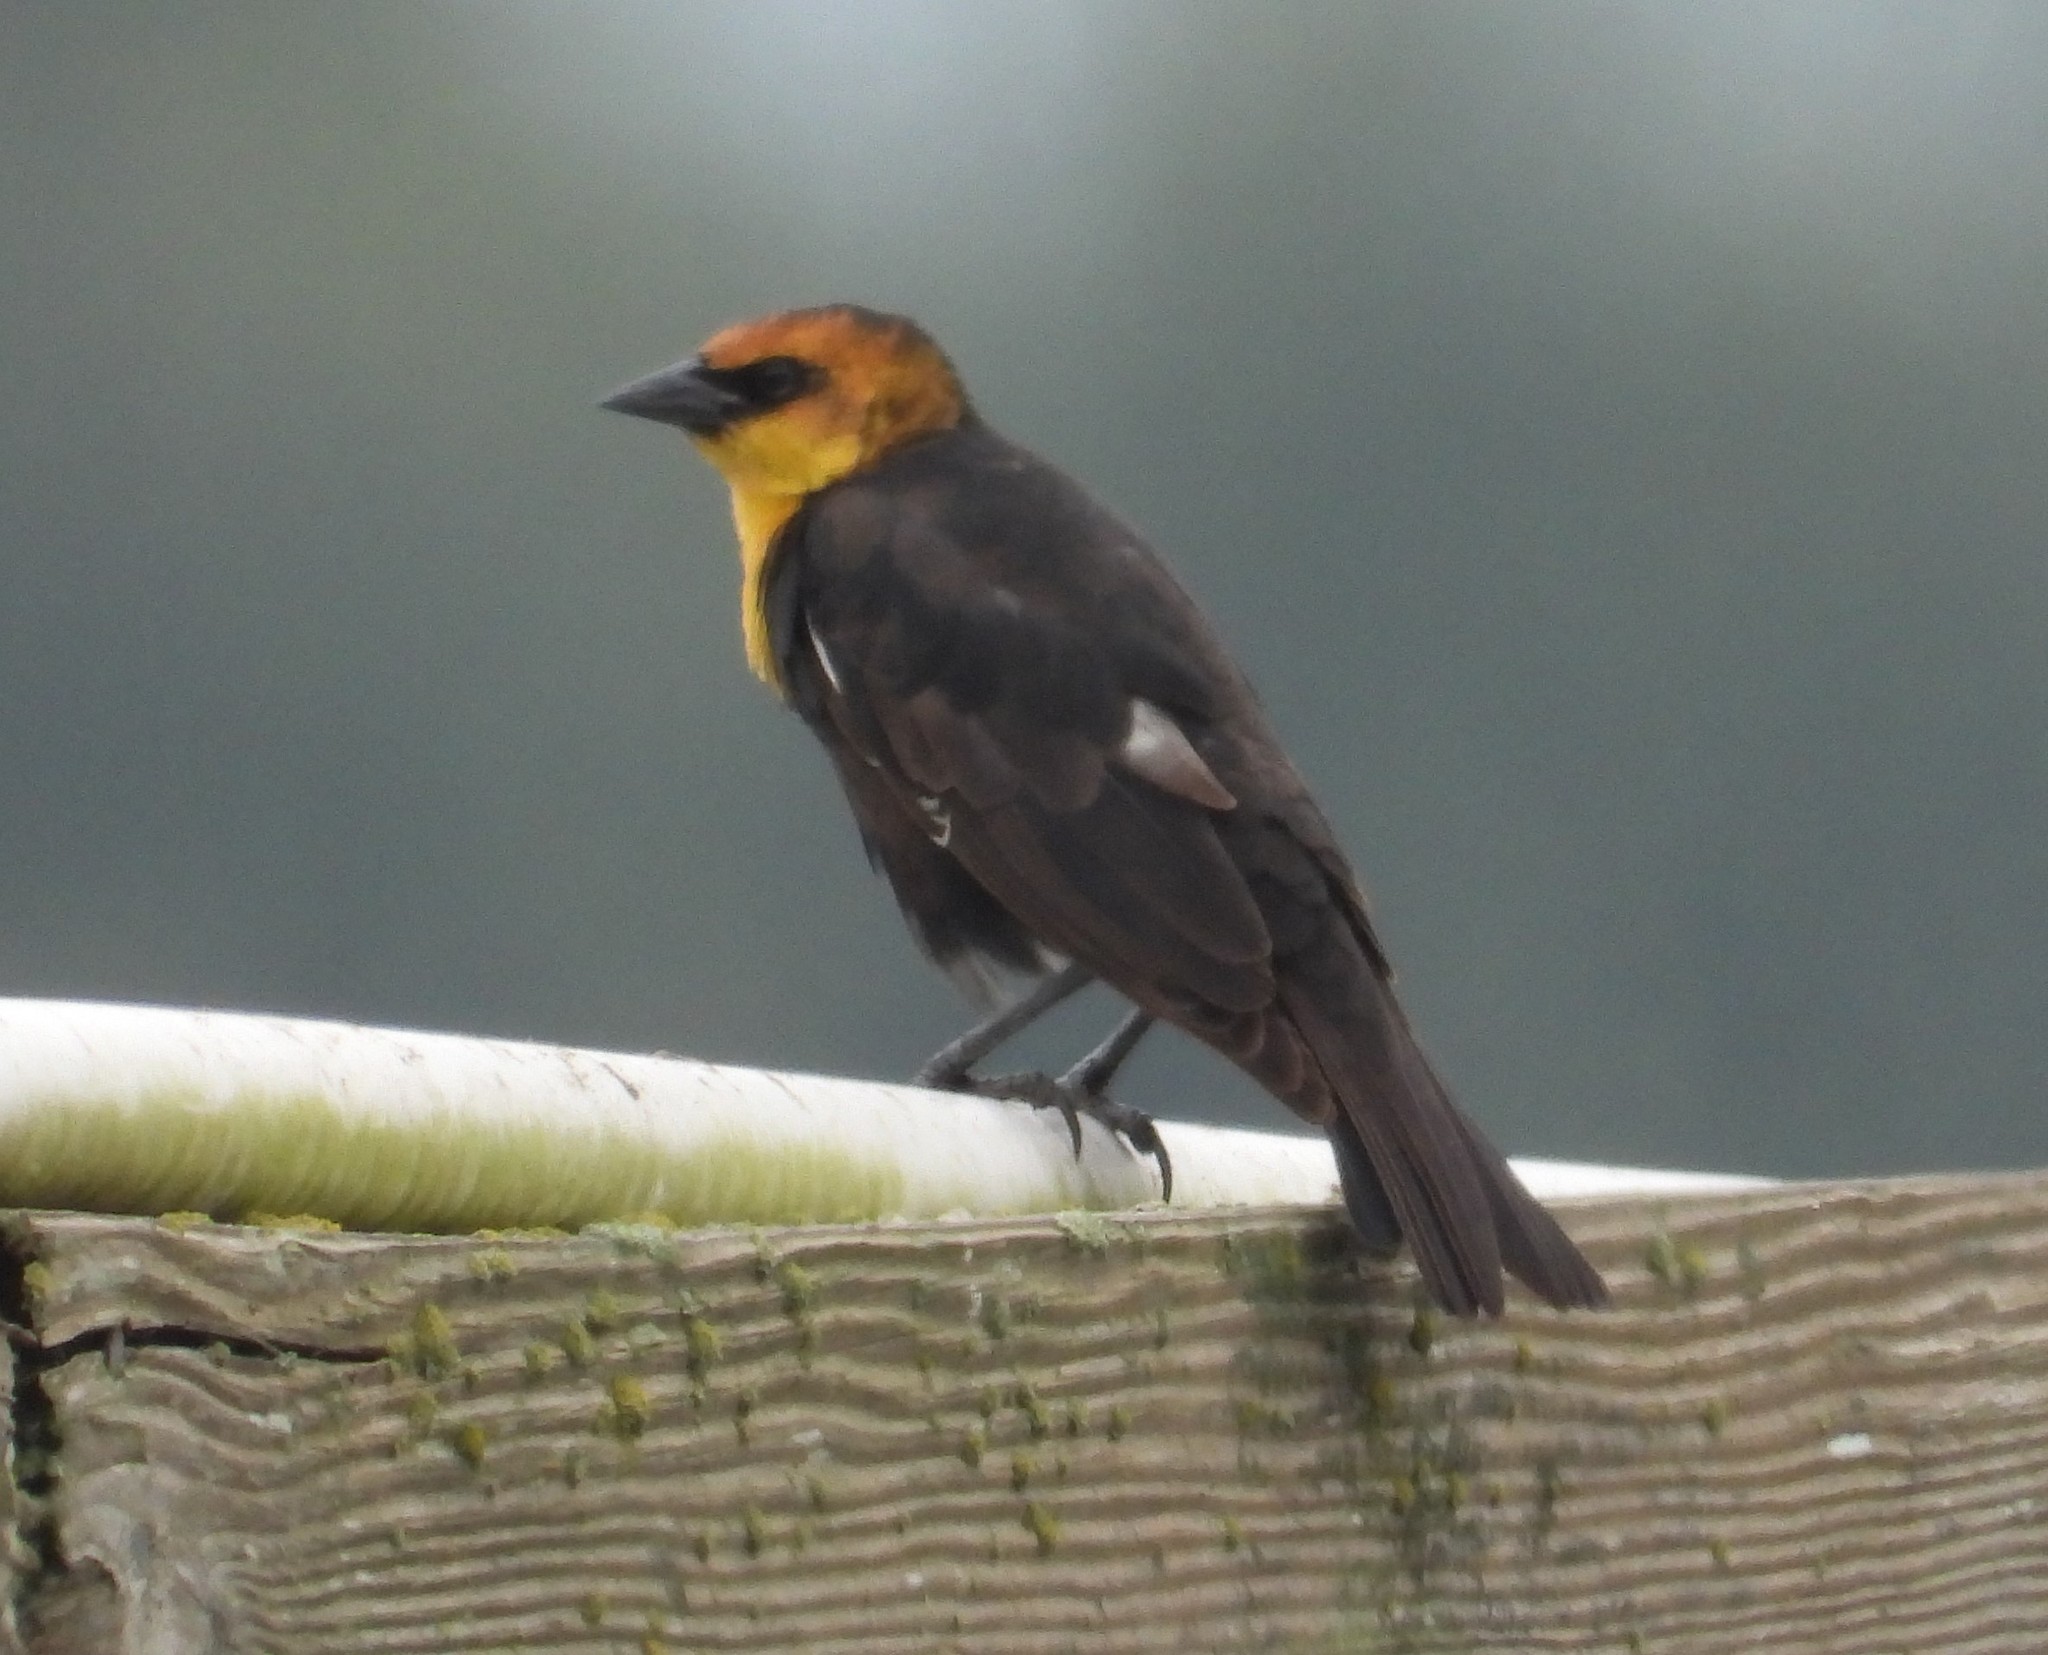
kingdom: Animalia
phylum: Chordata
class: Aves
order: Passeriformes
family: Icteridae
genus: Xanthocephalus
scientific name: Xanthocephalus xanthocephalus
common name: Yellow-headed blackbird
